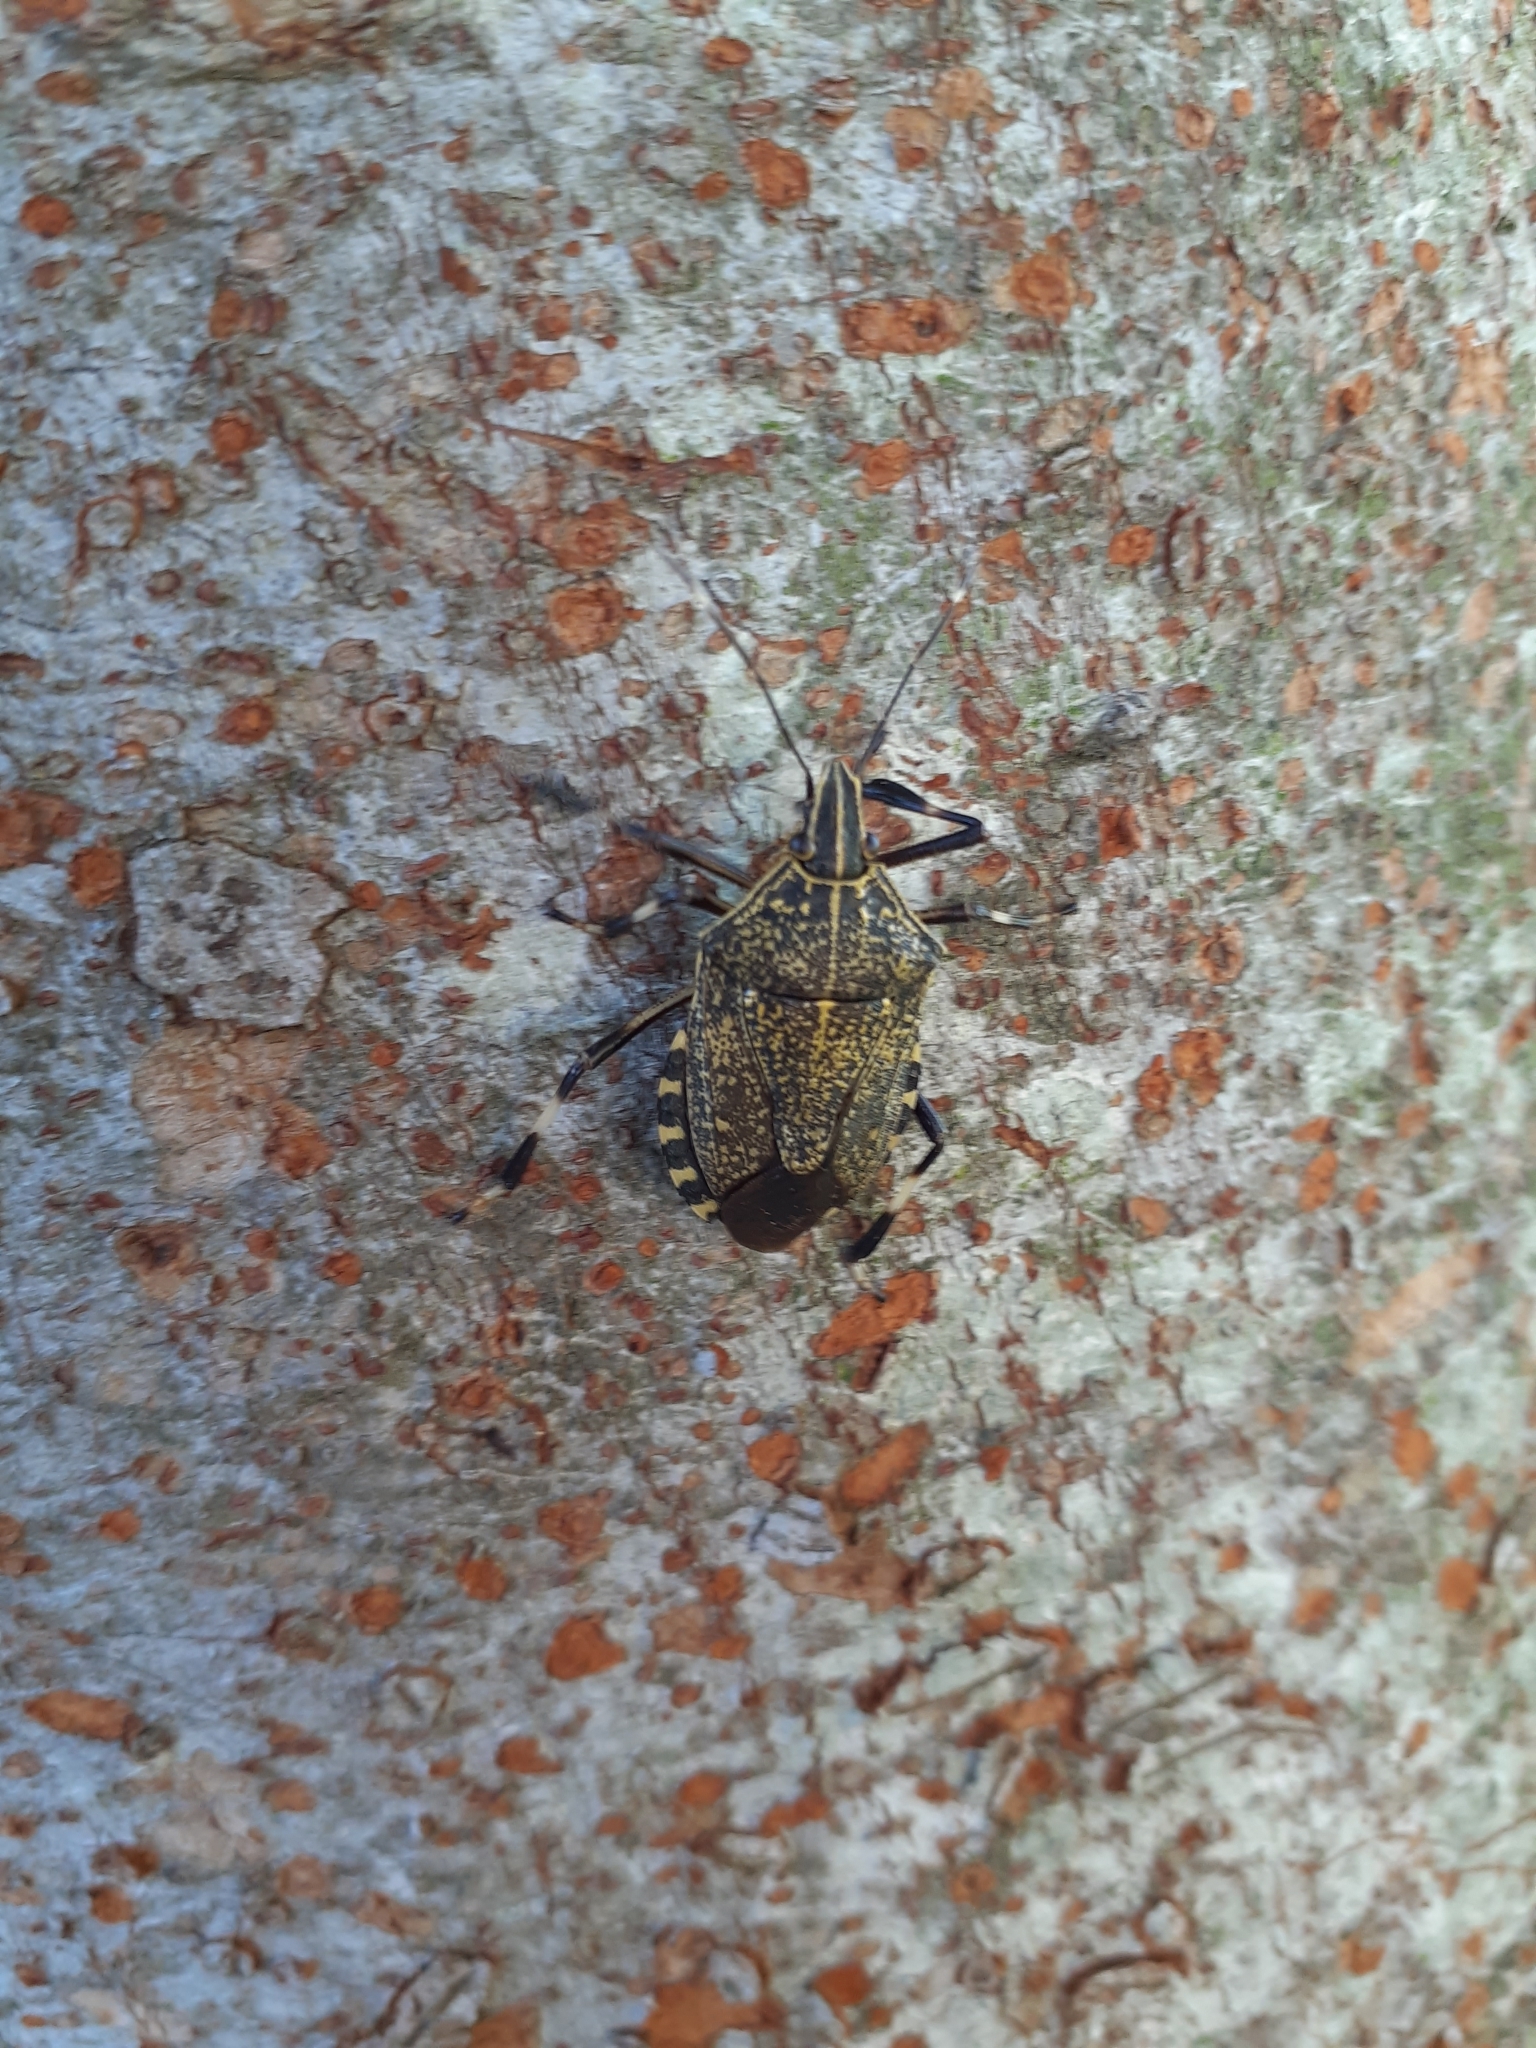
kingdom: Animalia
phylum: Arthropoda
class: Insecta
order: Hemiptera
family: Pentatomidae
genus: Erthesina
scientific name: Erthesina fullo
